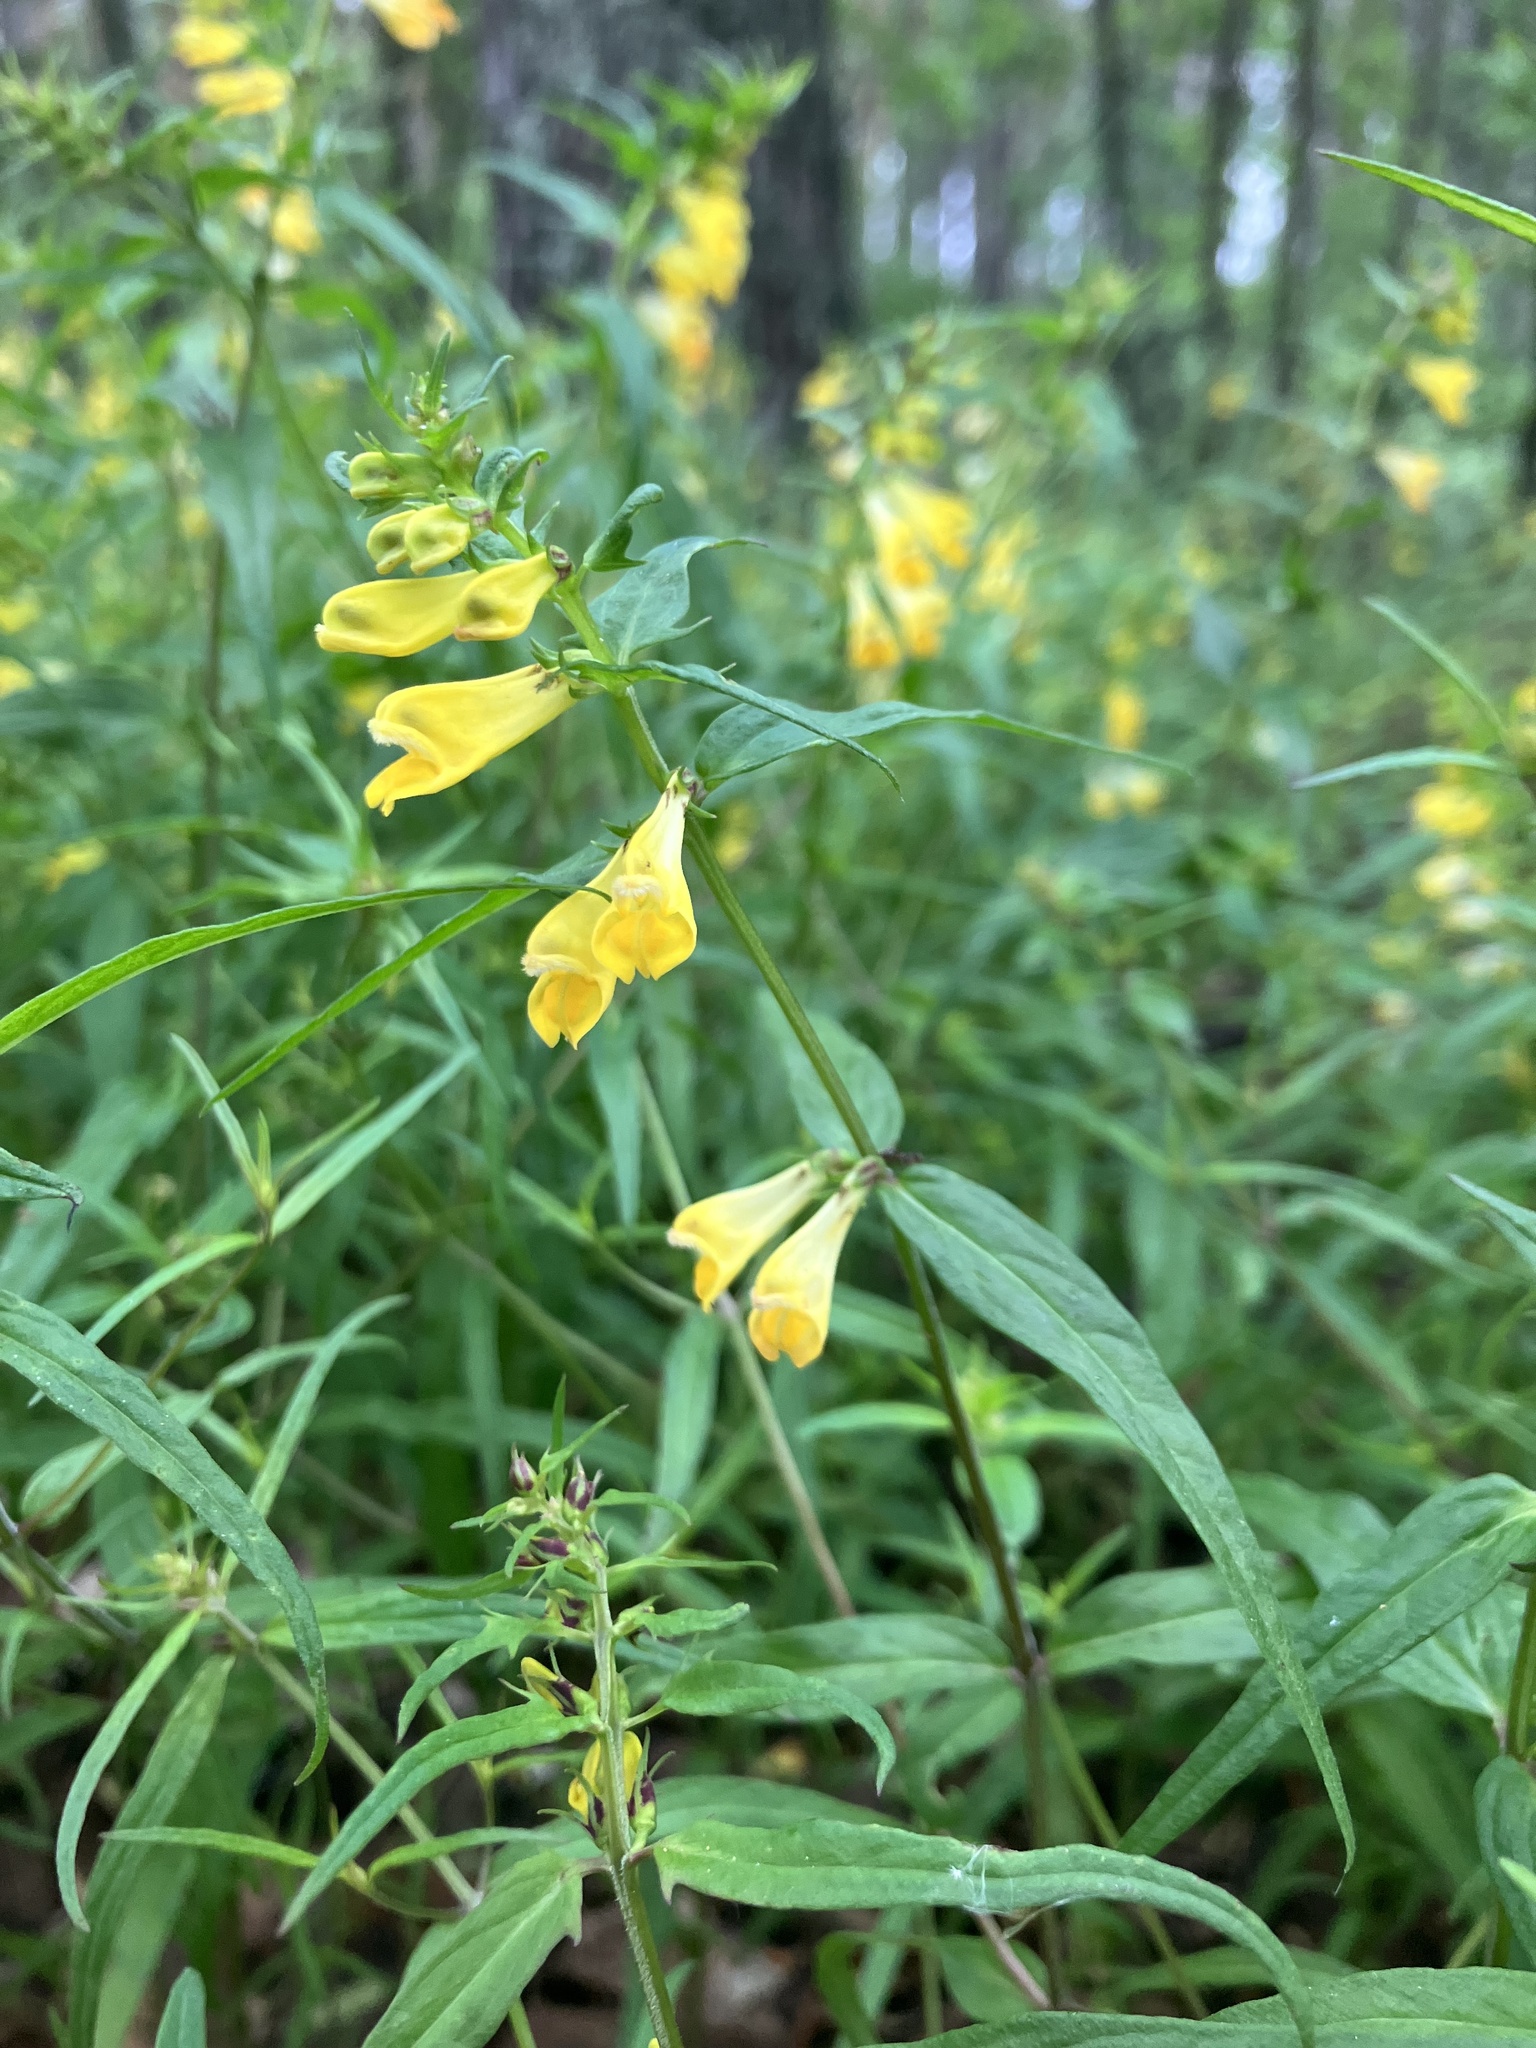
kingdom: Plantae
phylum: Tracheophyta
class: Magnoliopsida
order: Lamiales
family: Orobanchaceae
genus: Melampyrum
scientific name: Melampyrum pratense
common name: Common cow-wheat
